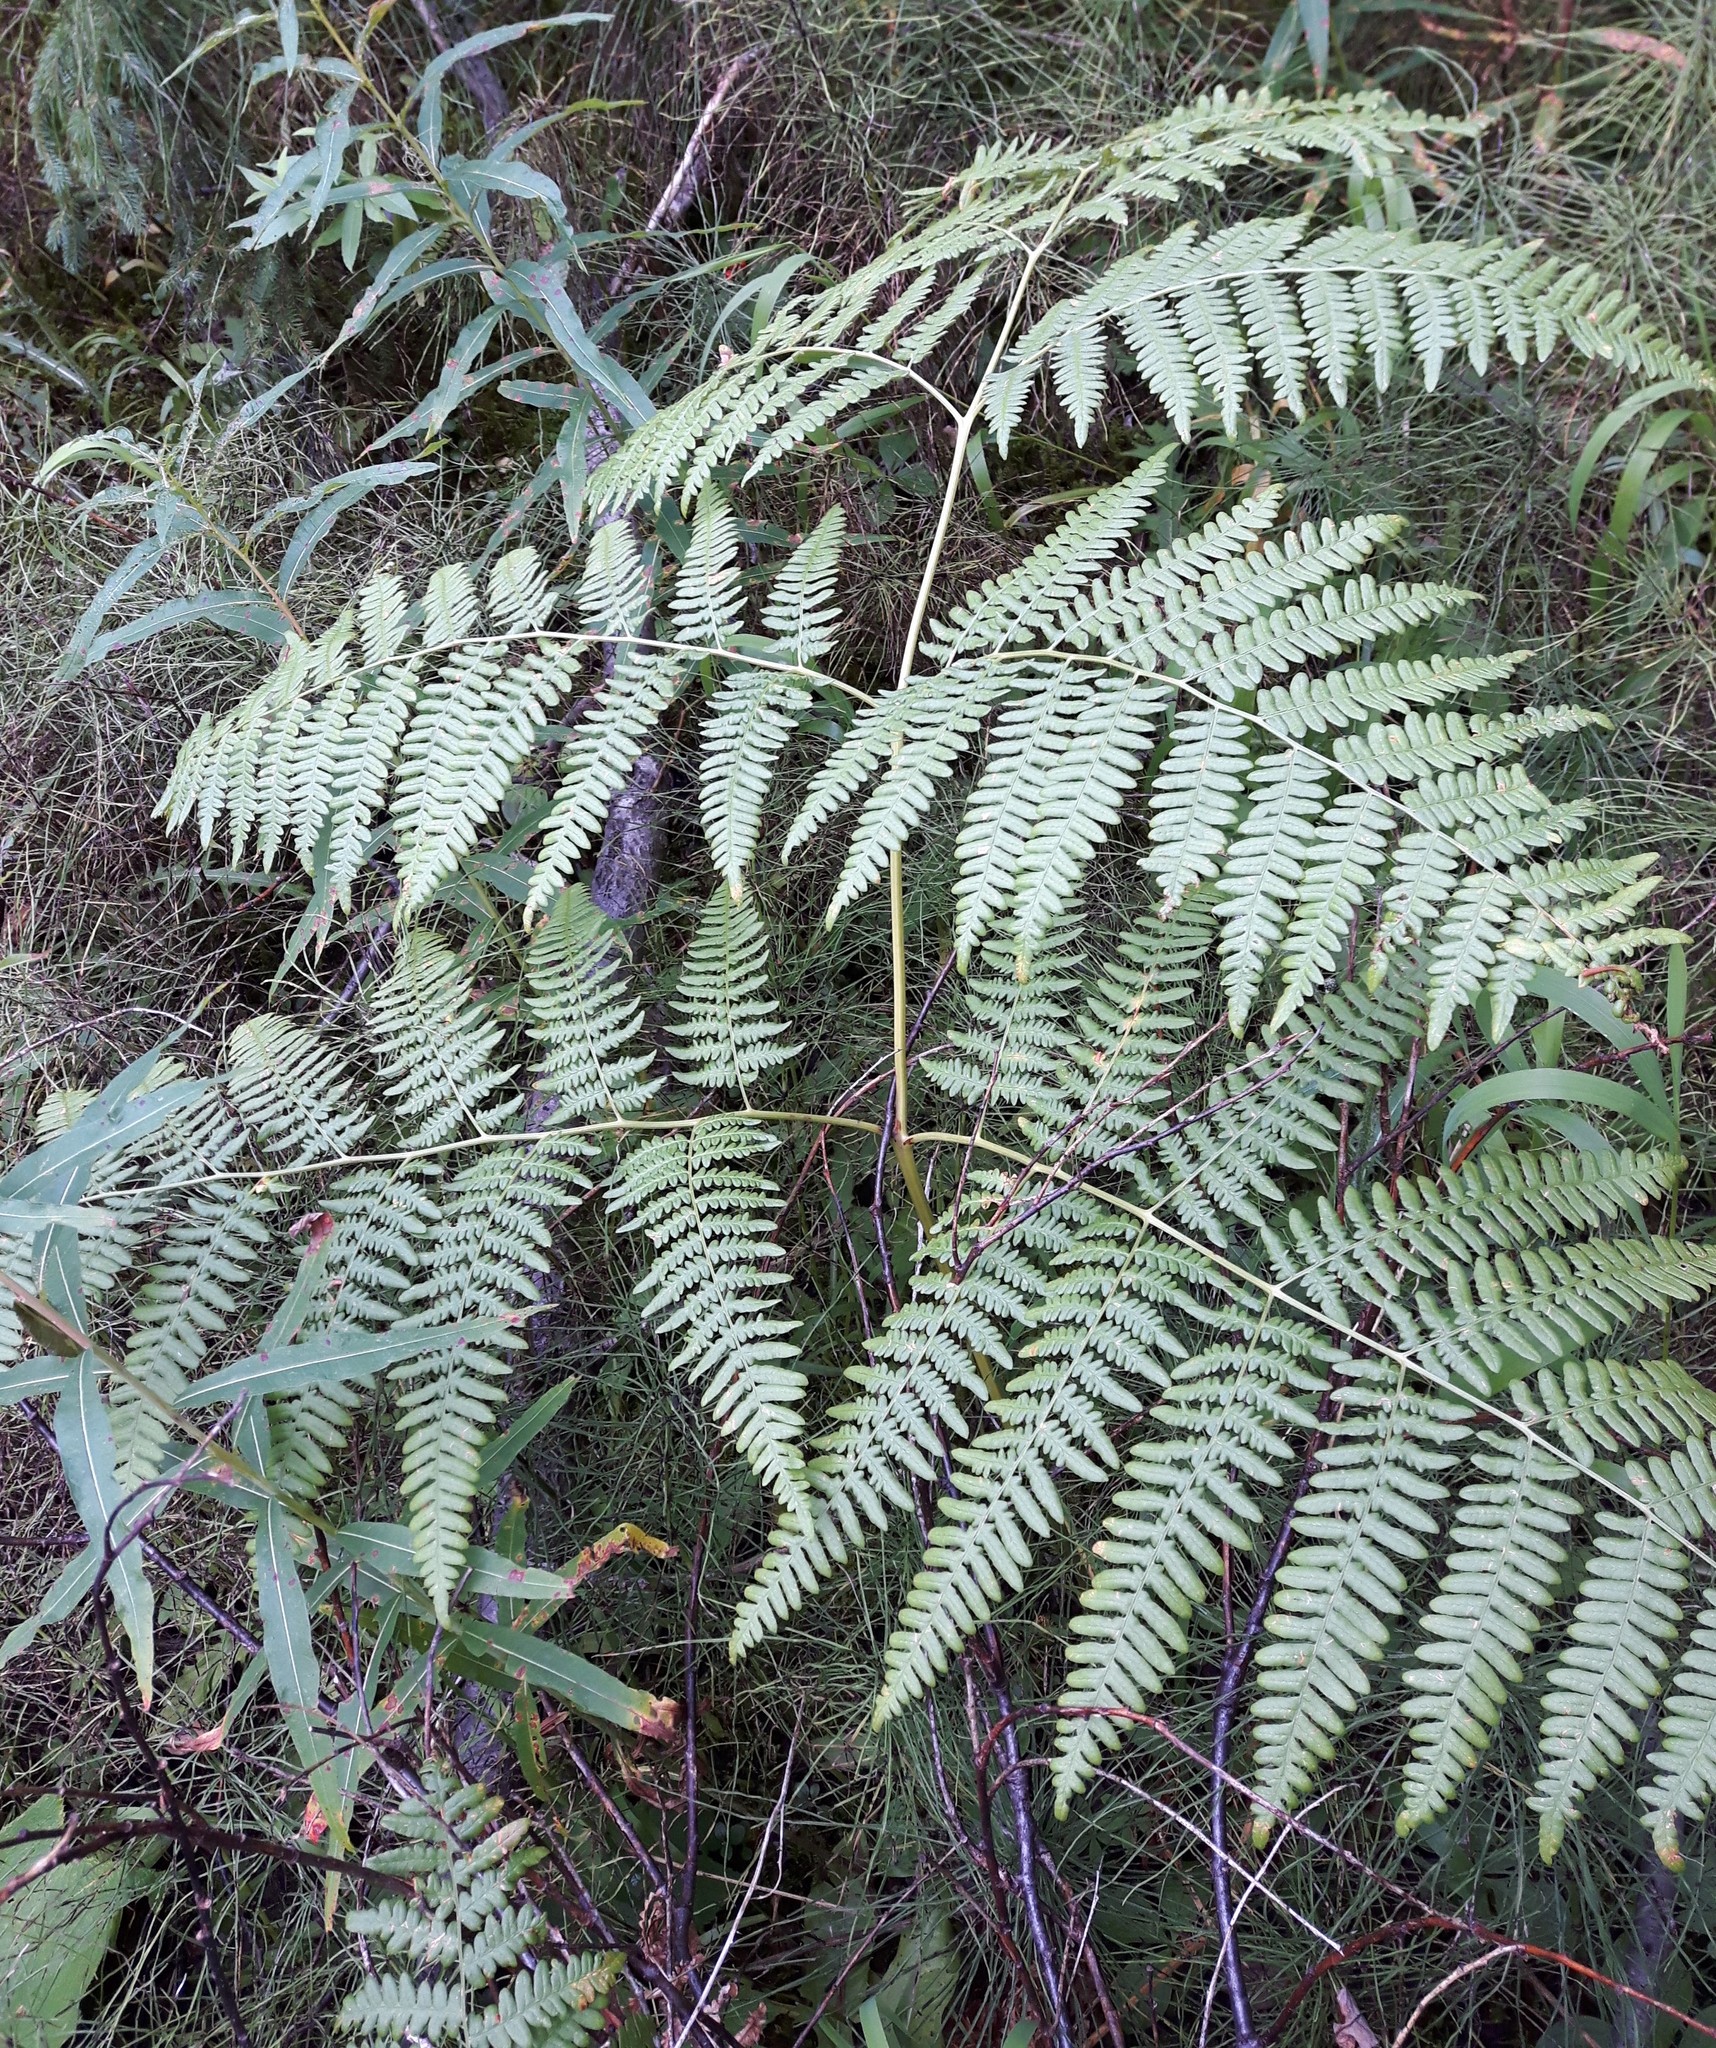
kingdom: Plantae
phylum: Tracheophyta
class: Polypodiopsida
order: Polypodiales
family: Dennstaedtiaceae
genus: Pteridium
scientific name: Pteridium aquilinum
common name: Bracken
